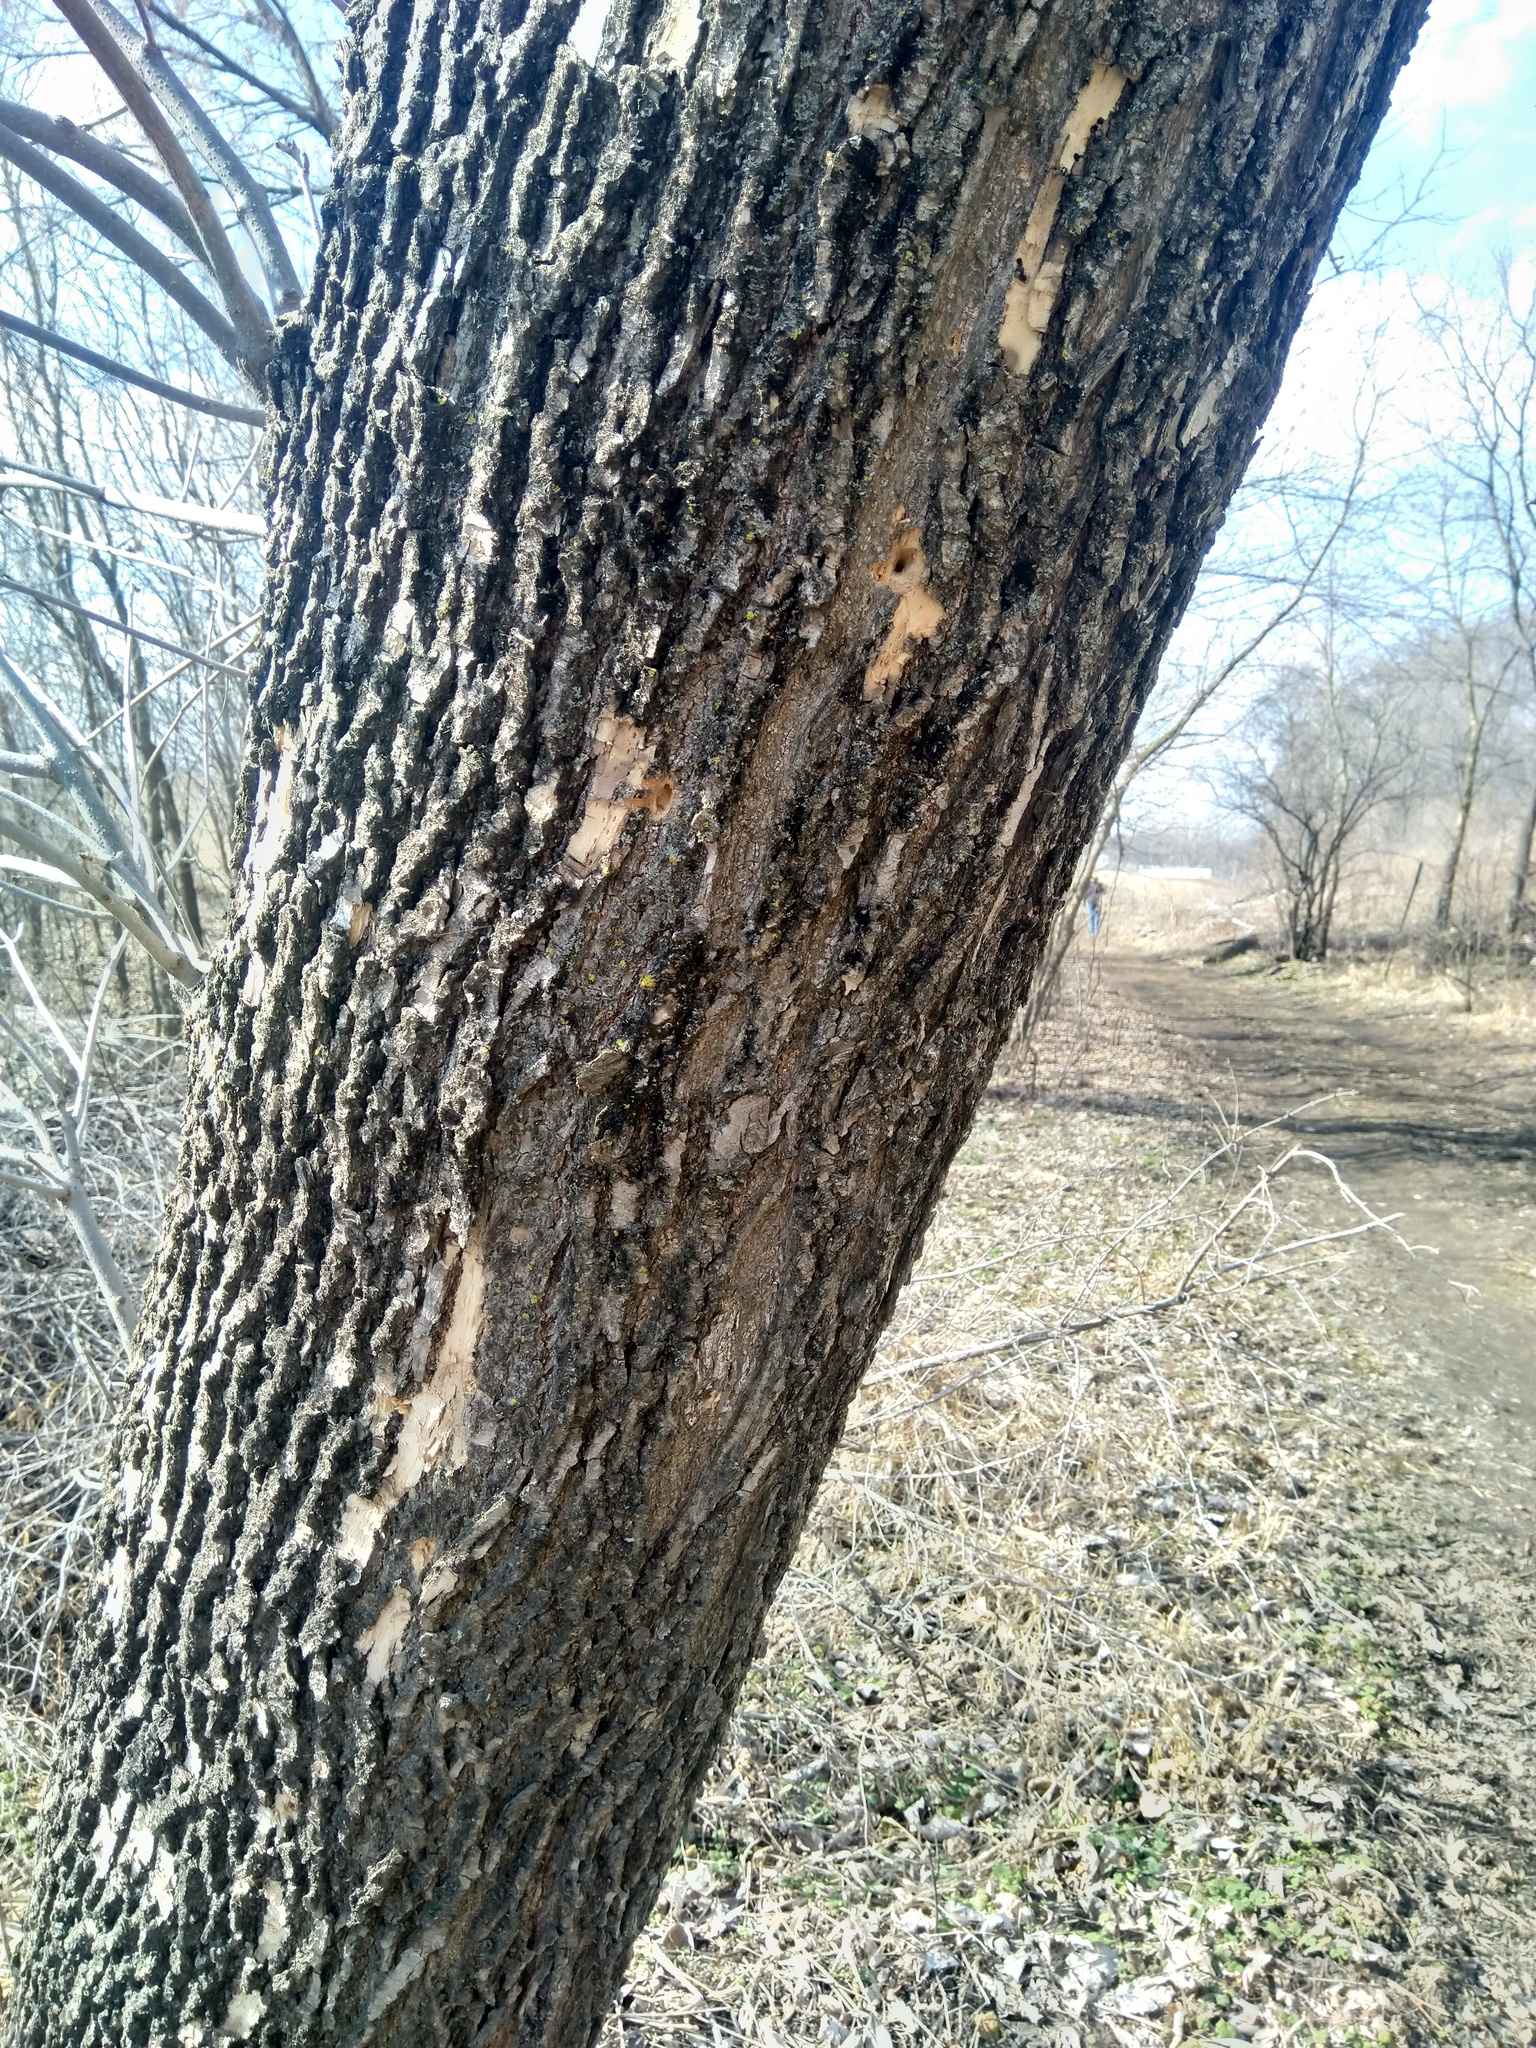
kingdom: Animalia
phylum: Arthropoda
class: Insecta
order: Coleoptera
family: Buprestidae
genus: Agrilus
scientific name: Agrilus planipennis
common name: Emerald ash borer
